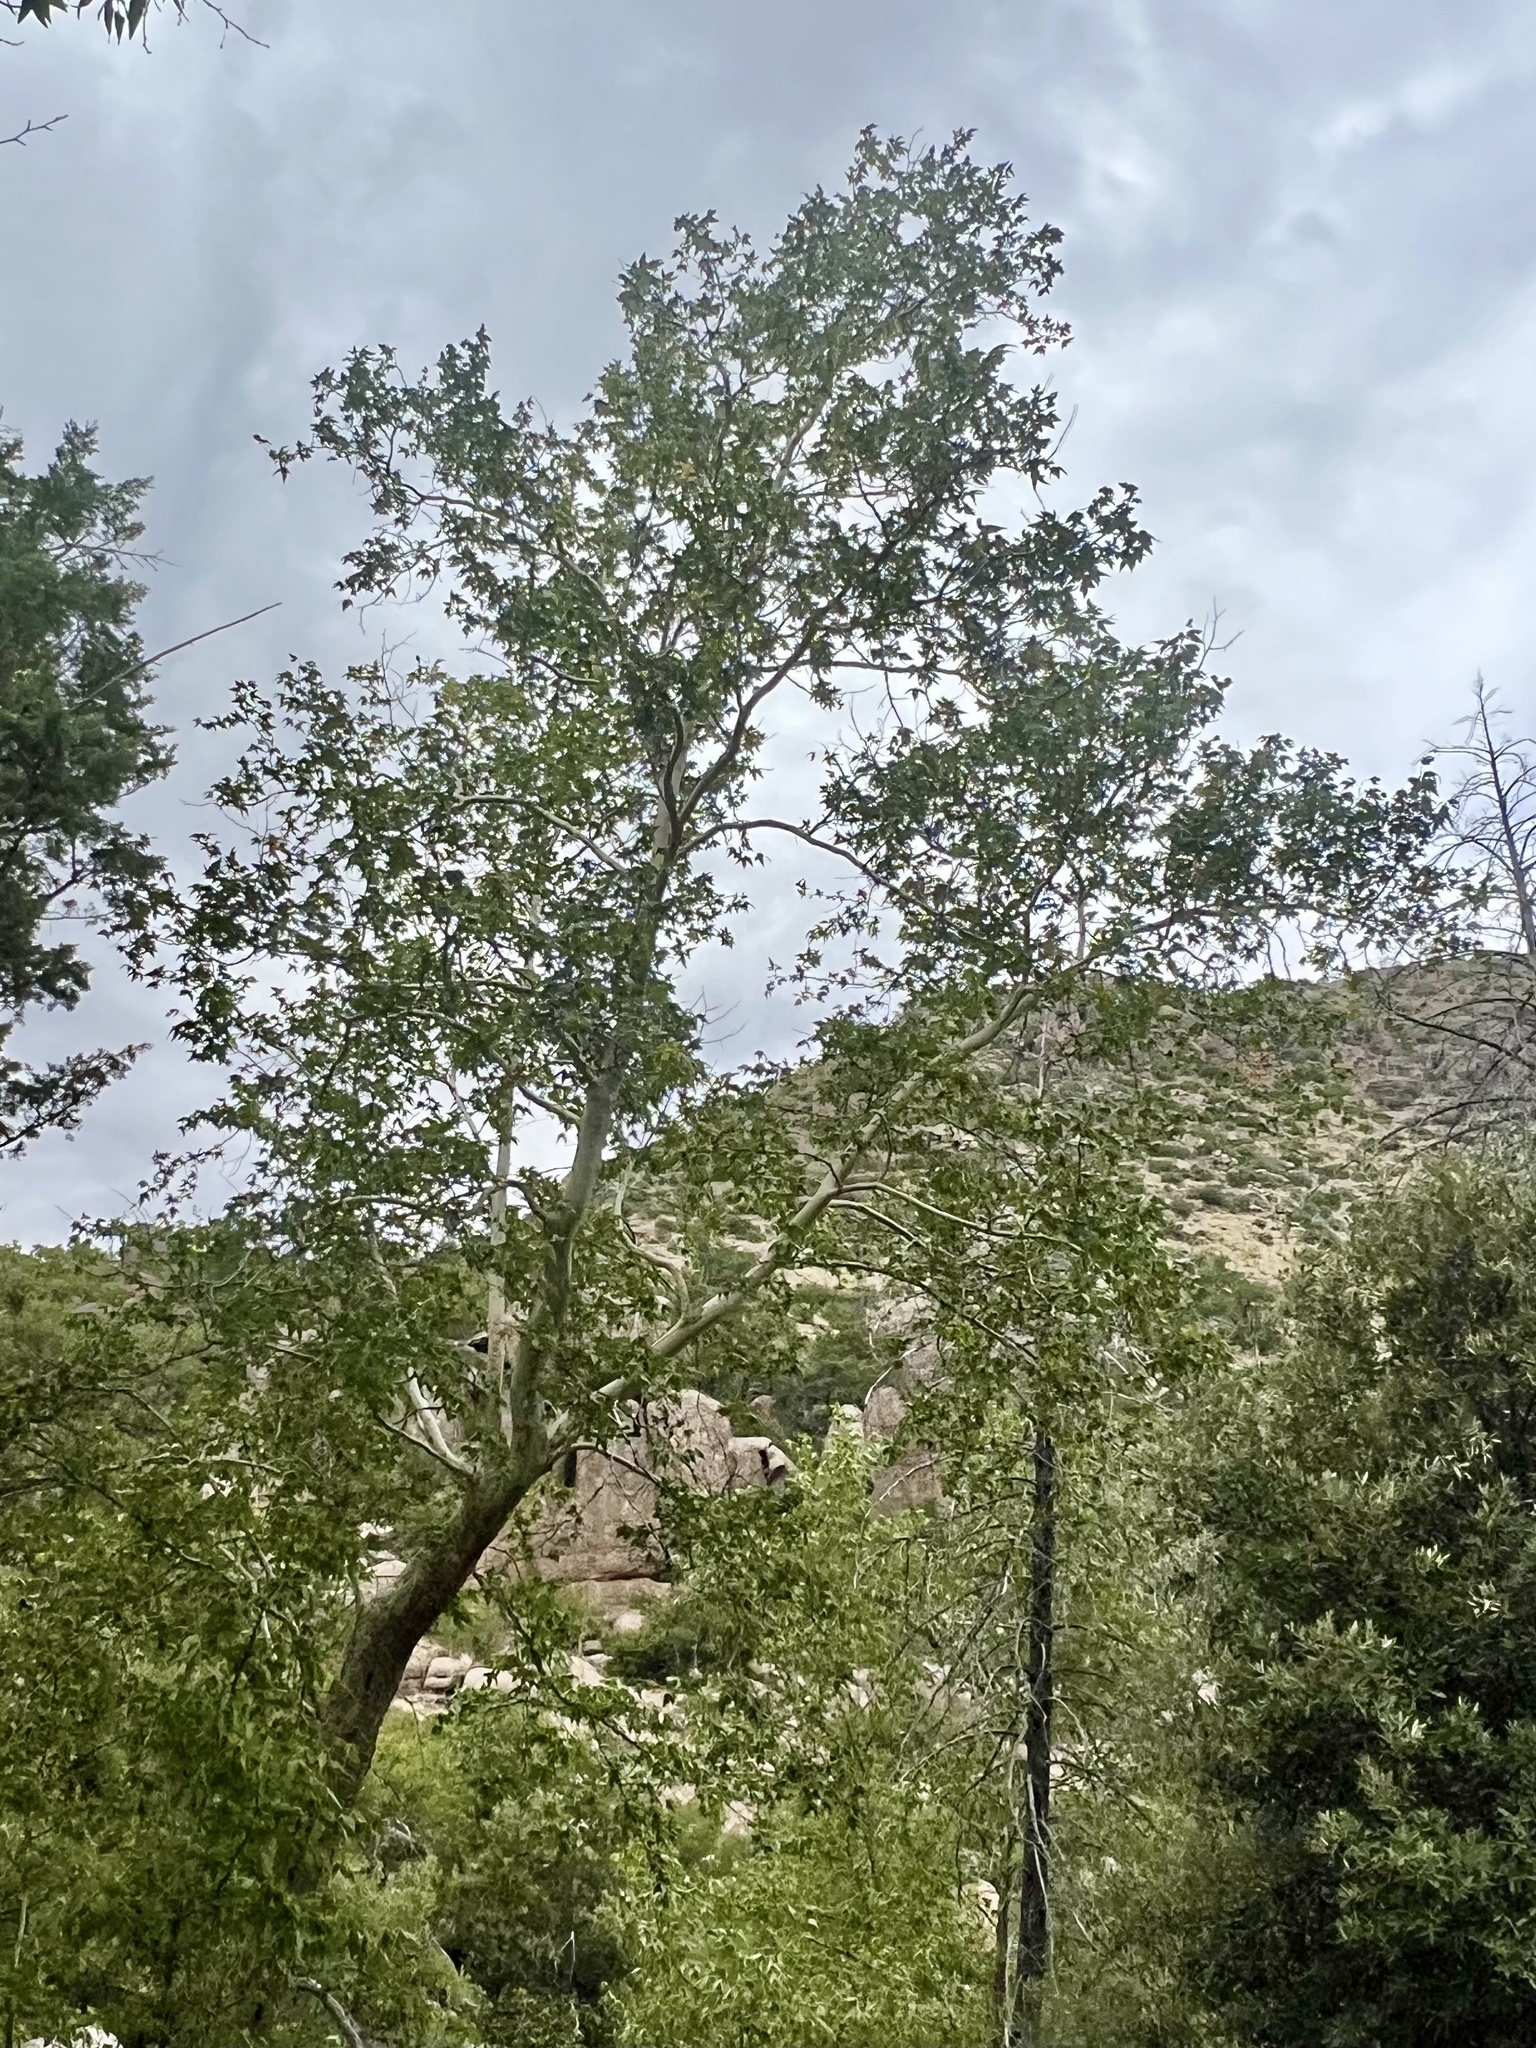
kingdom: Plantae
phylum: Tracheophyta
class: Magnoliopsida
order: Proteales
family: Platanaceae
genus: Platanus
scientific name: Platanus wrightii
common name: Arizona sycamore
